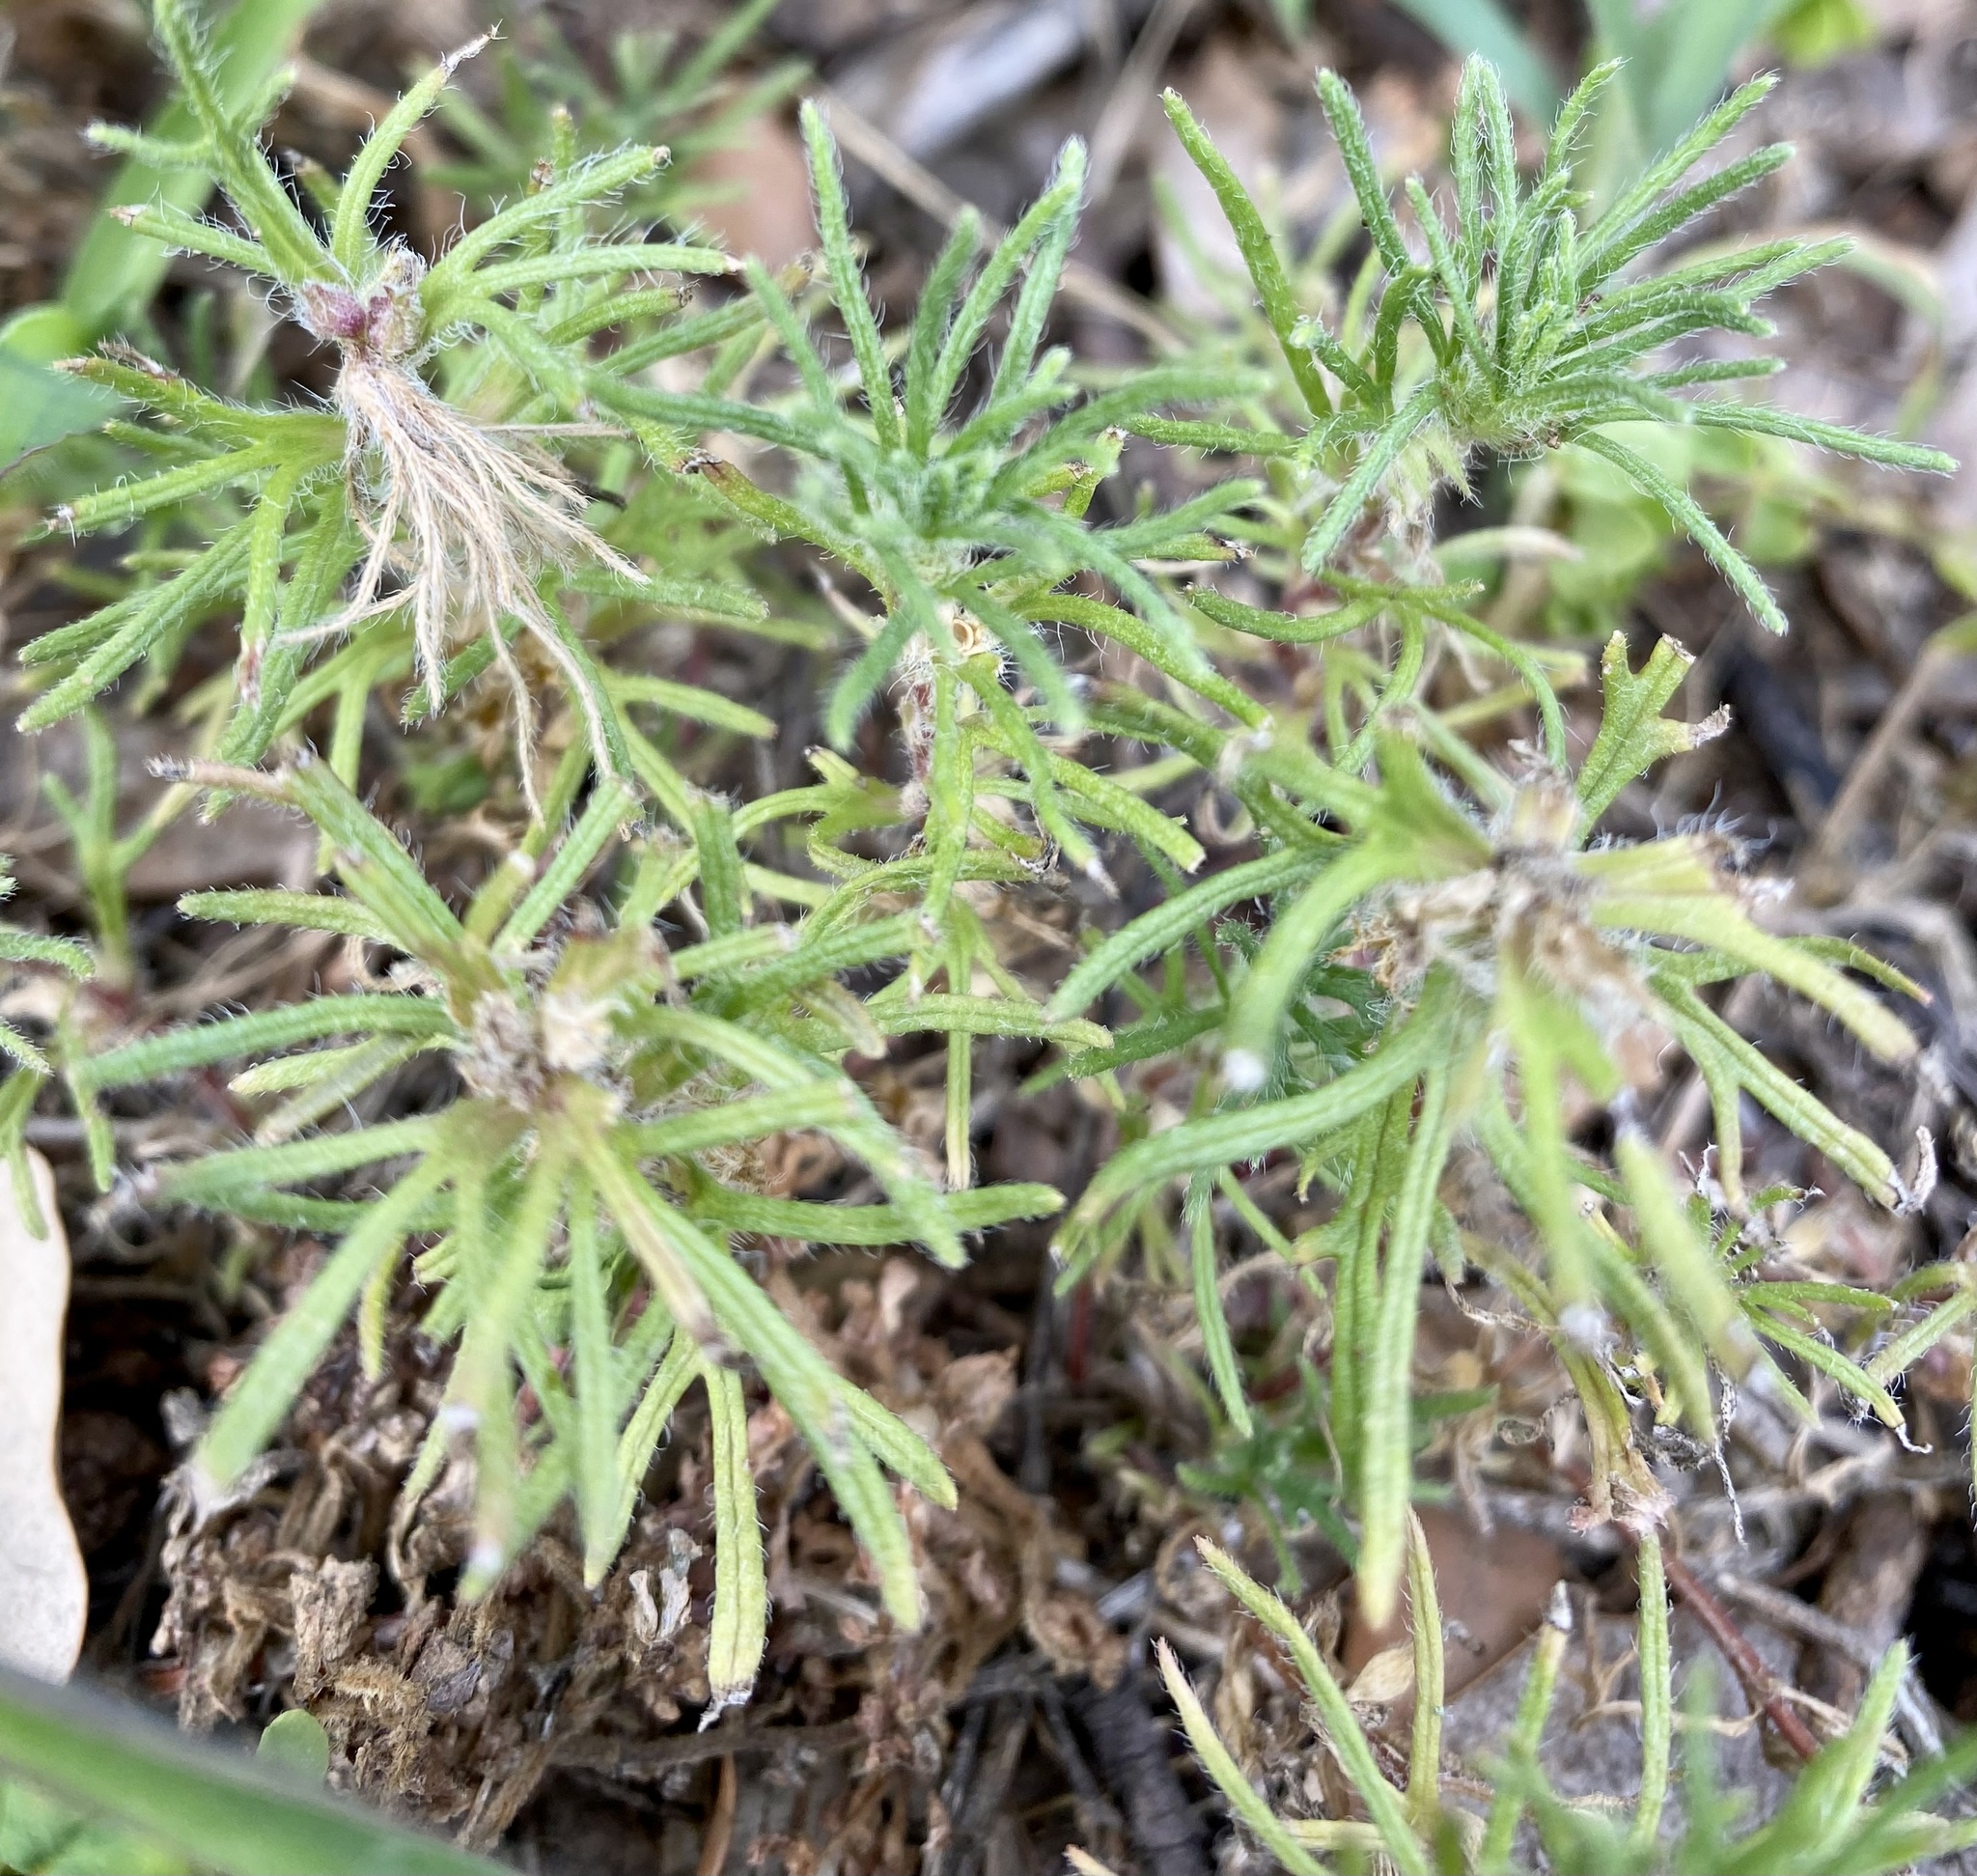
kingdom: Plantae
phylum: Tracheophyta
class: Magnoliopsida
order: Lamiales
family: Lamiaceae
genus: Ajuga
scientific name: Ajuga chamaepitys
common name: Ground-pine
